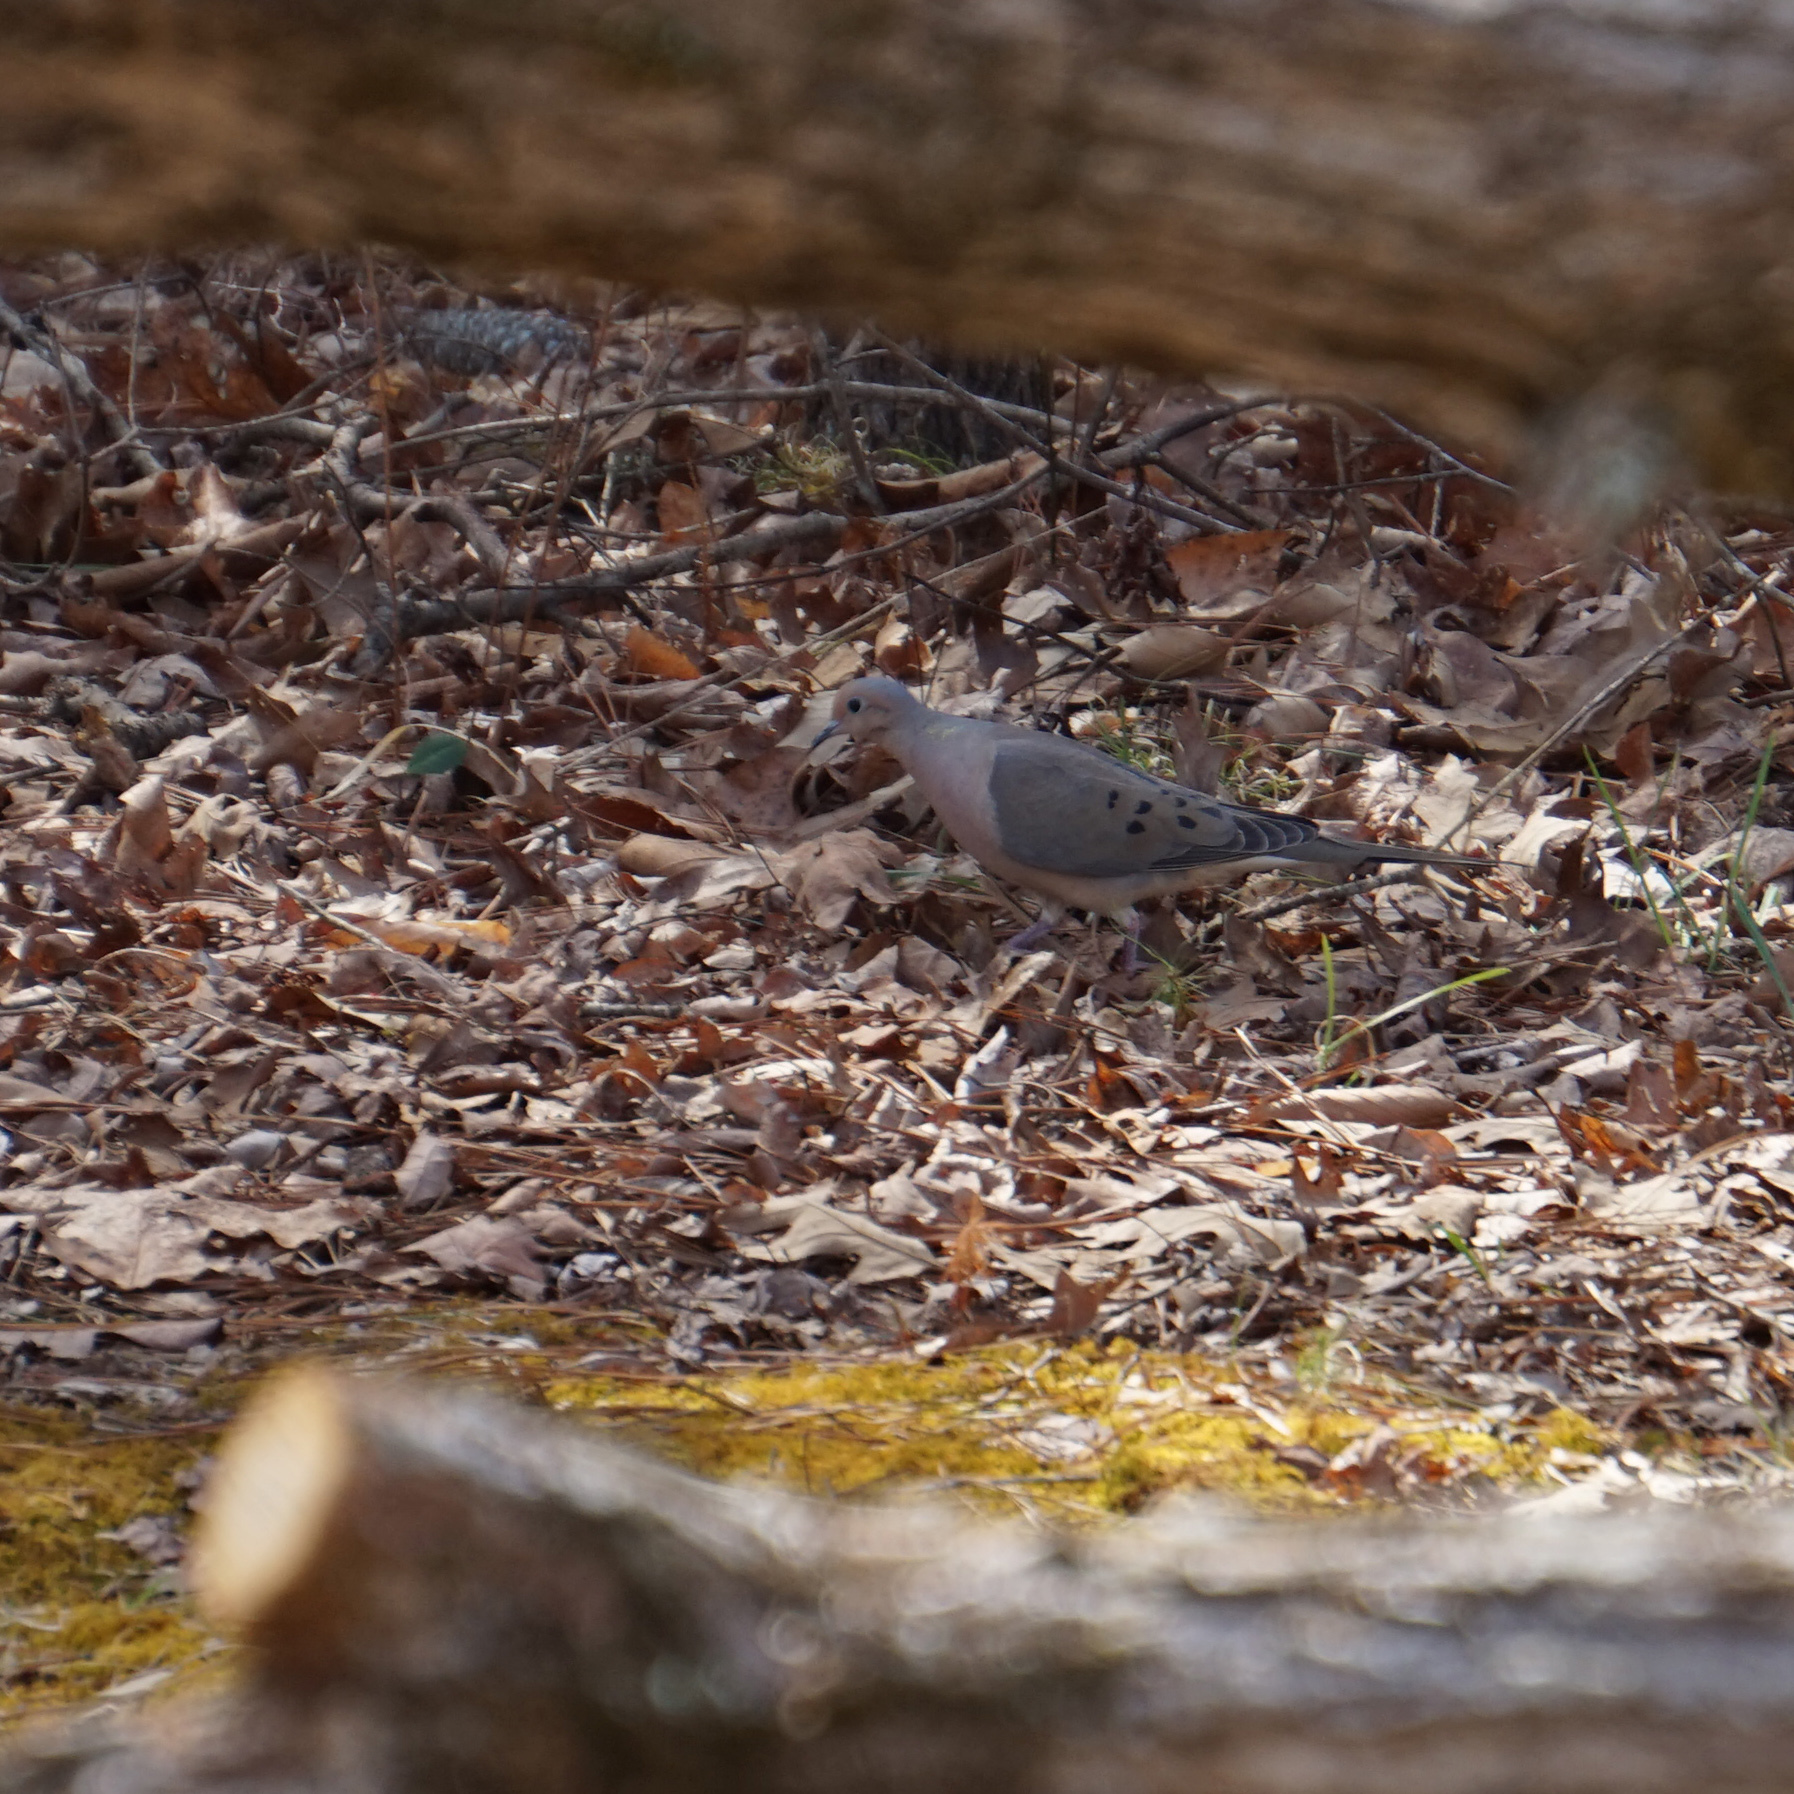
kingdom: Animalia
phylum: Chordata
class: Aves
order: Columbiformes
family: Columbidae
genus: Zenaida
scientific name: Zenaida macroura
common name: Mourning dove
